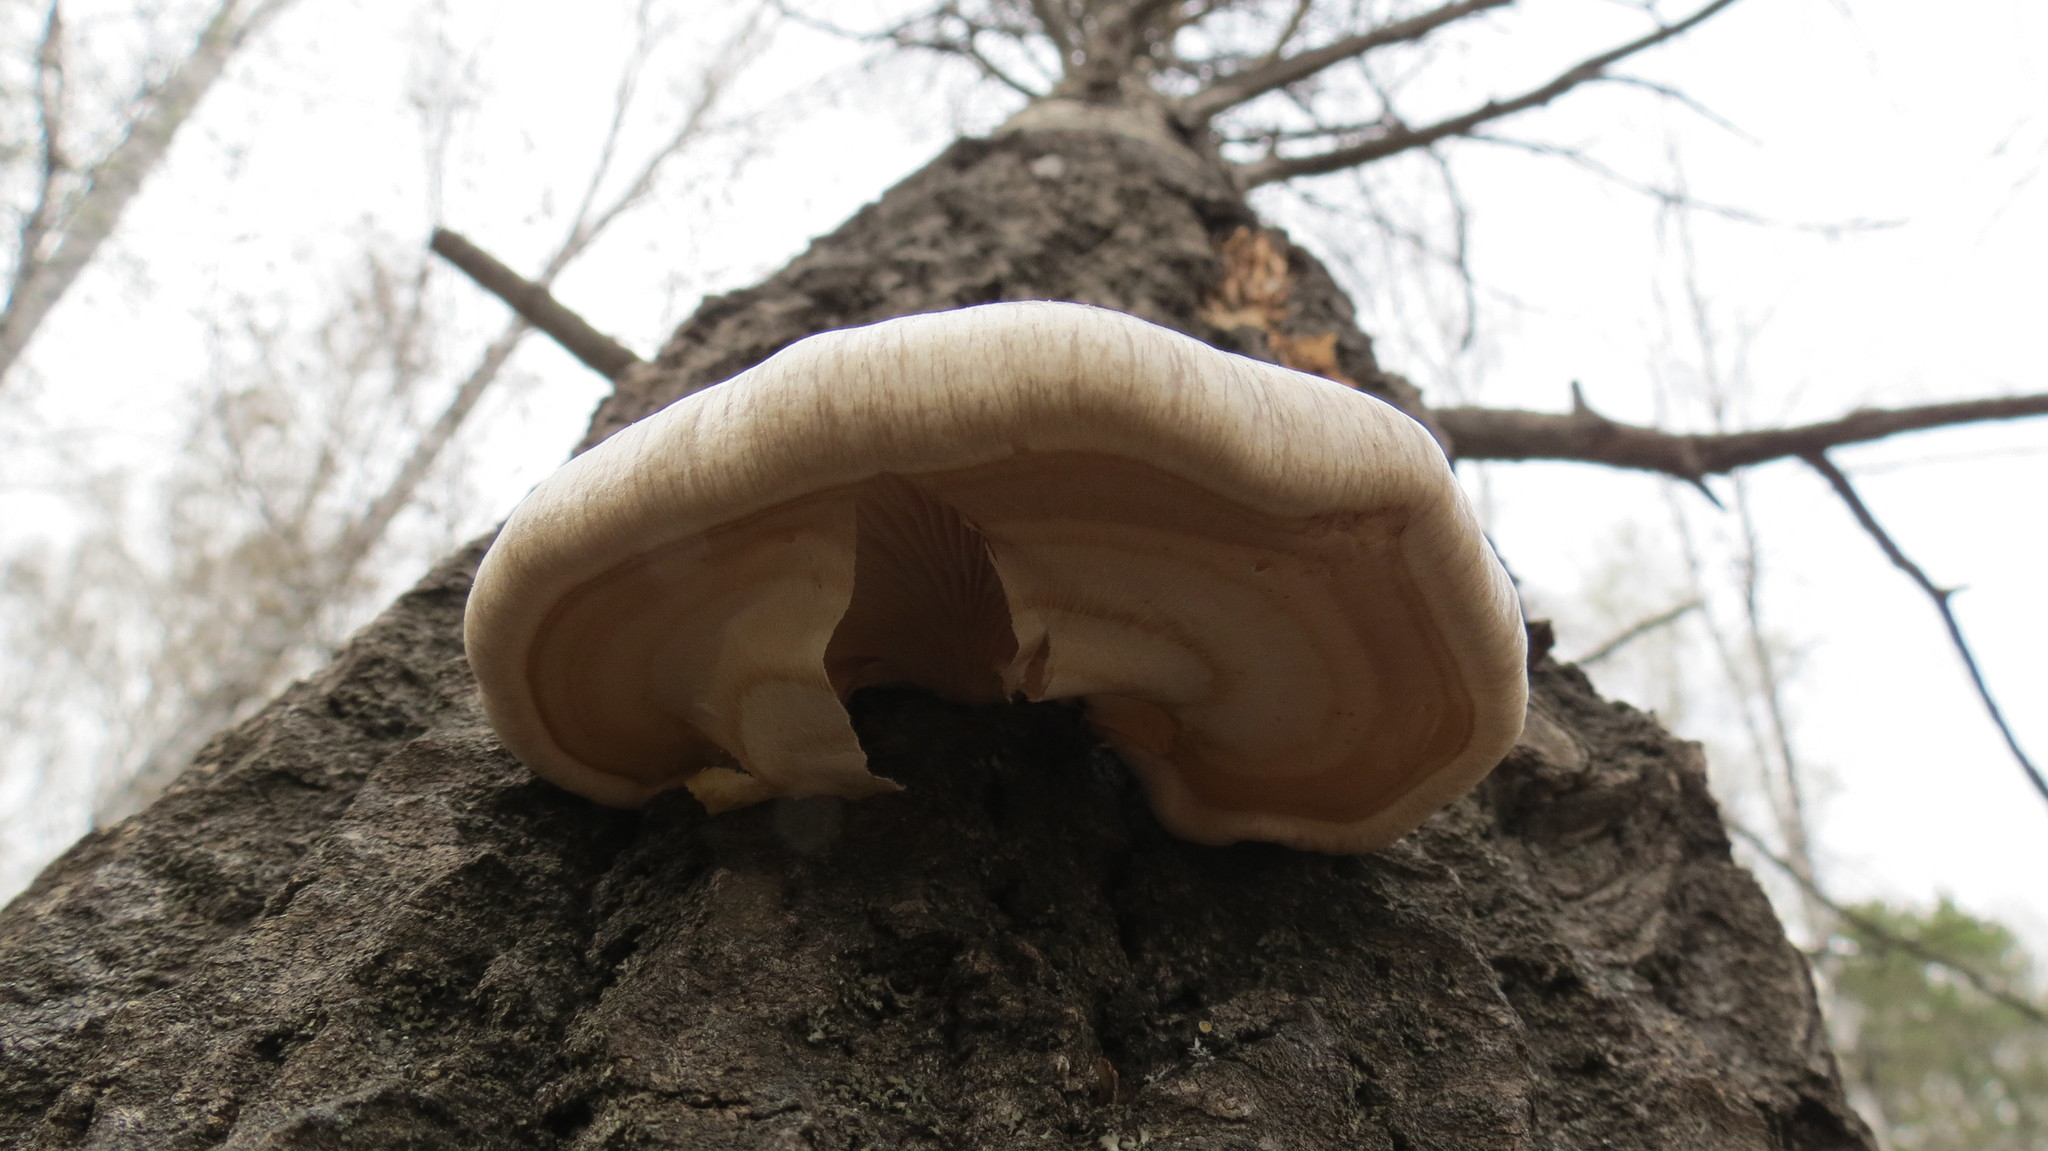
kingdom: Fungi
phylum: Basidiomycota
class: Agaricomycetes
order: Agaricales
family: Pleurotaceae
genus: Pleurotus
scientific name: Pleurotus calyptratus
